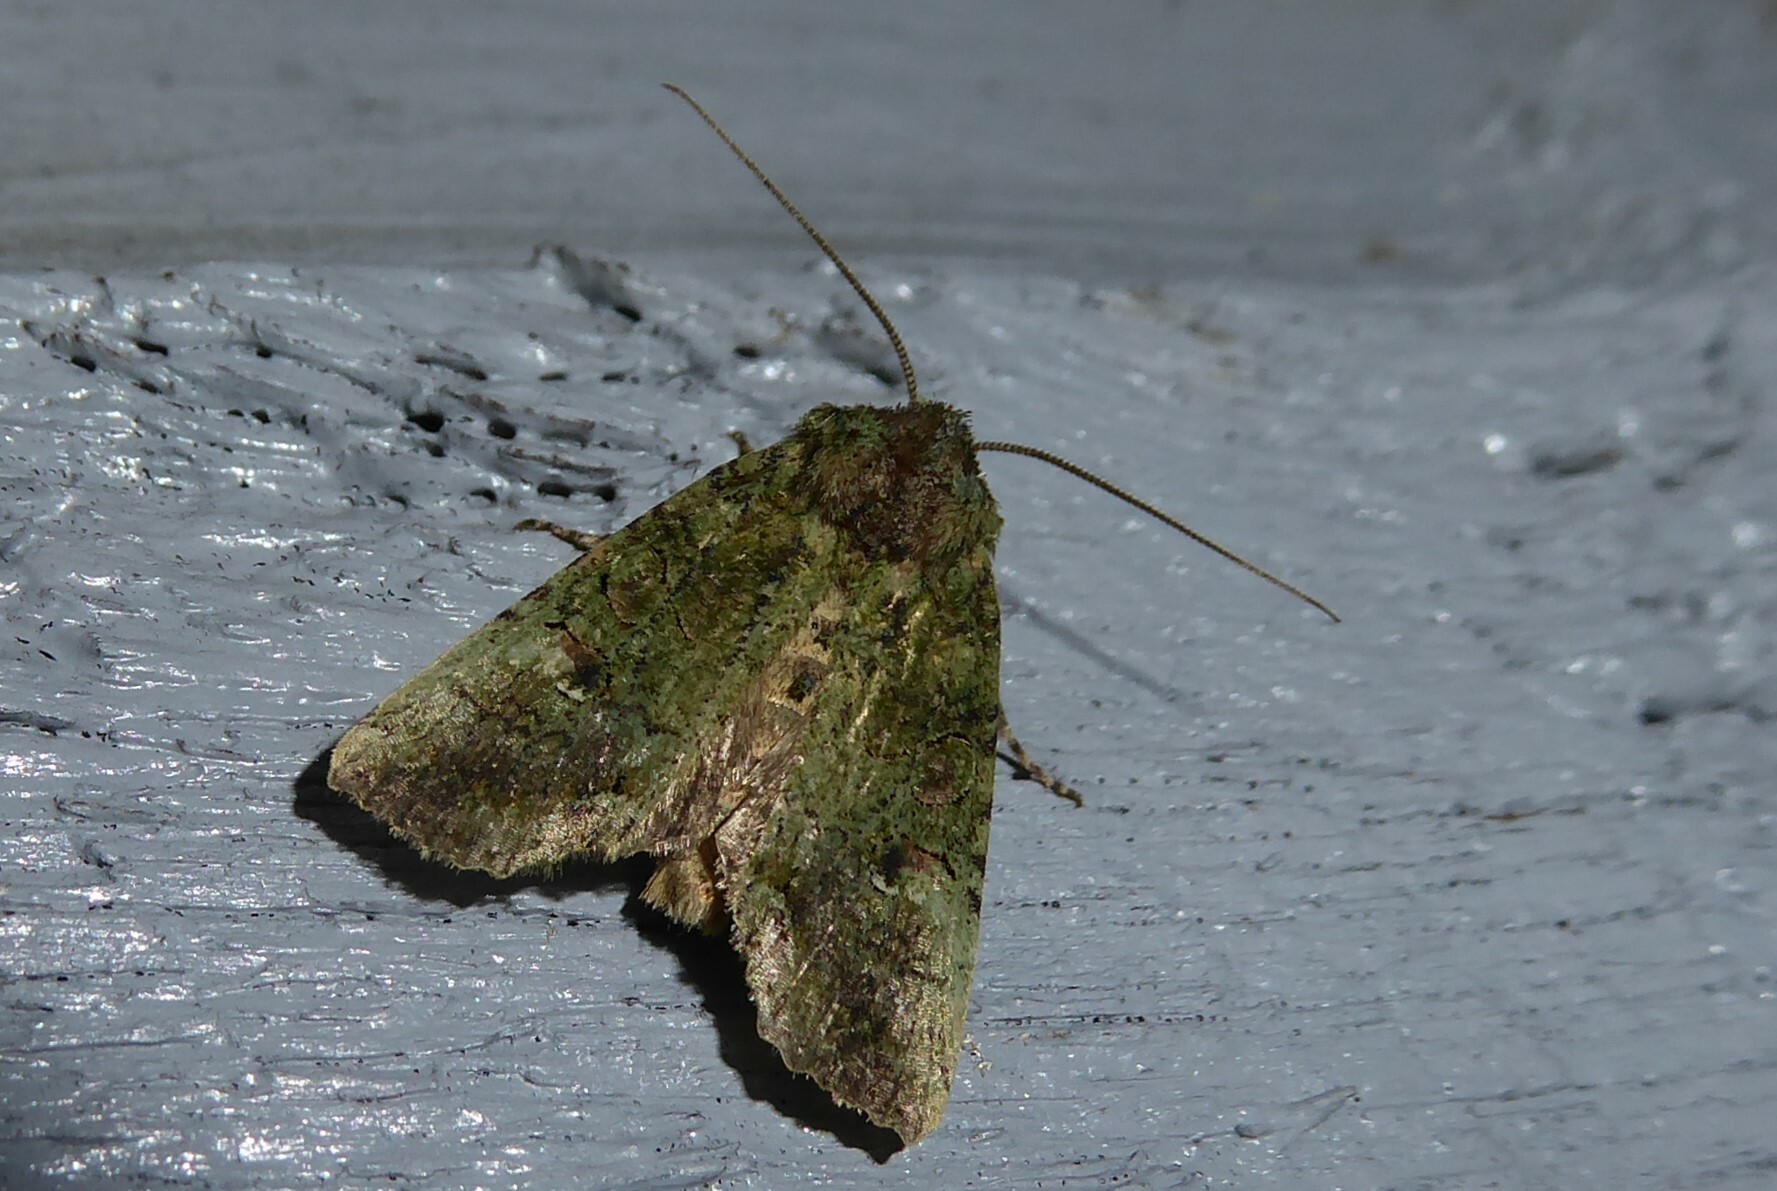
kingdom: Animalia
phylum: Arthropoda
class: Insecta
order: Lepidoptera
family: Noctuidae
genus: Meterana
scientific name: Meterana levis
